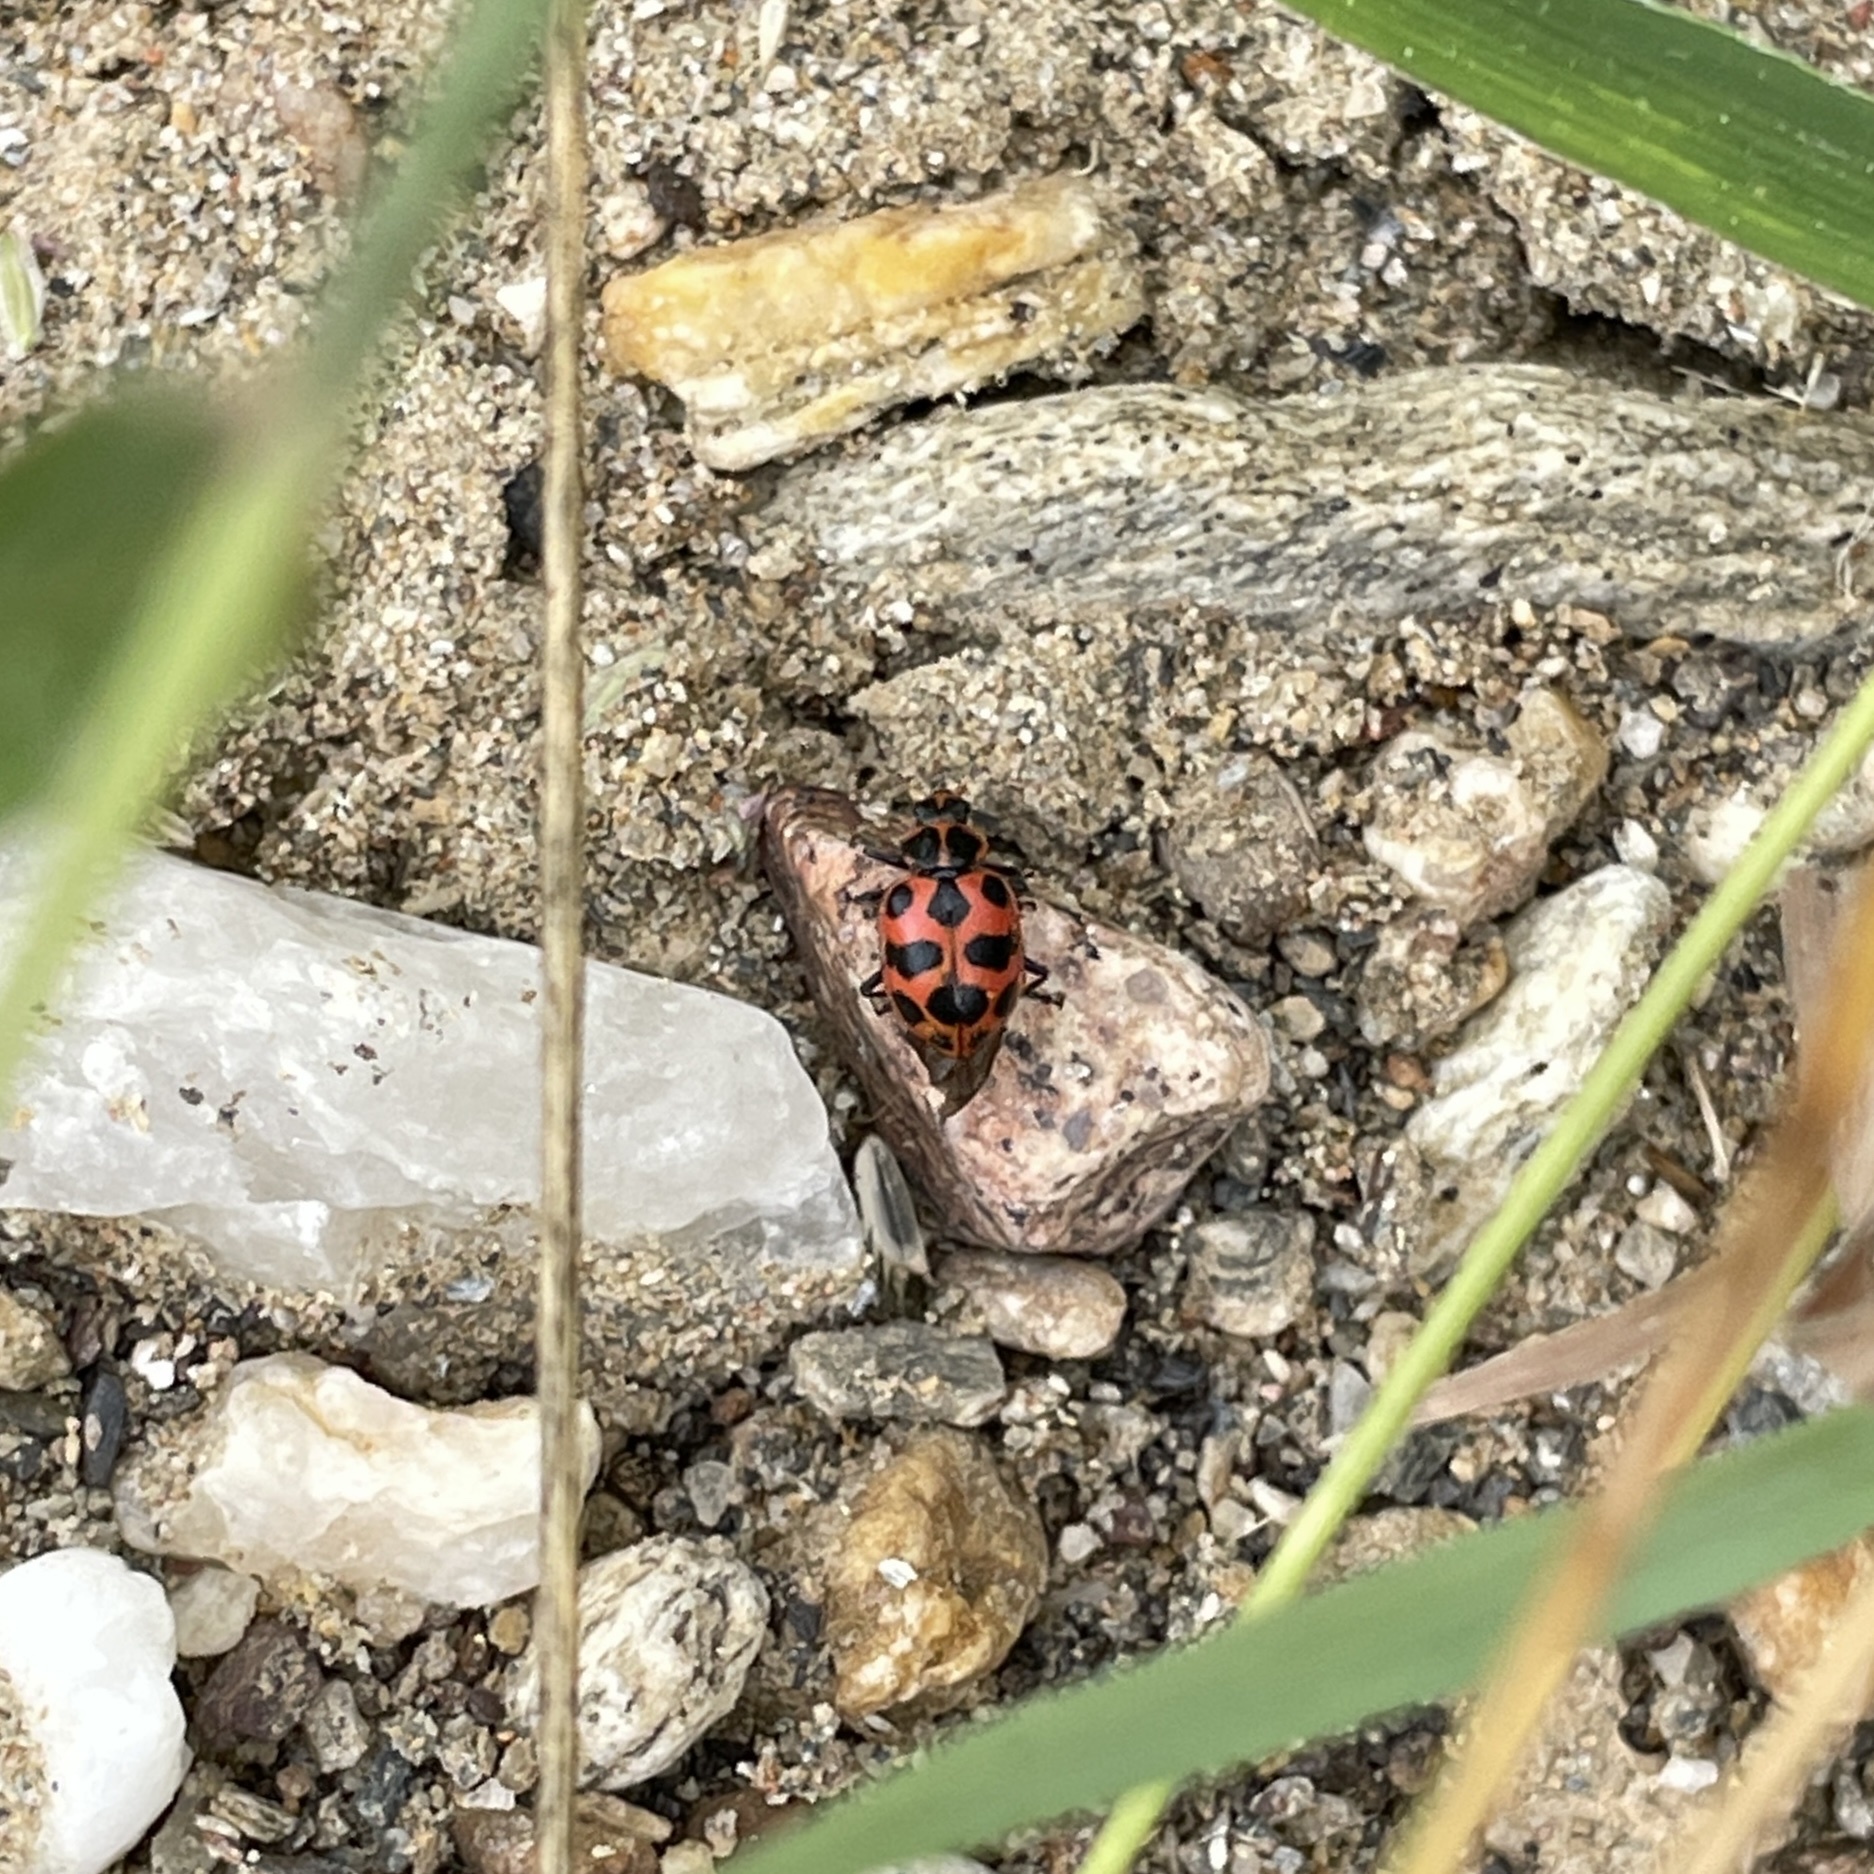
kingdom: Animalia
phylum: Arthropoda
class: Insecta
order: Coleoptera
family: Coccinellidae
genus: Coleomegilla
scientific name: Coleomegilla maculata
